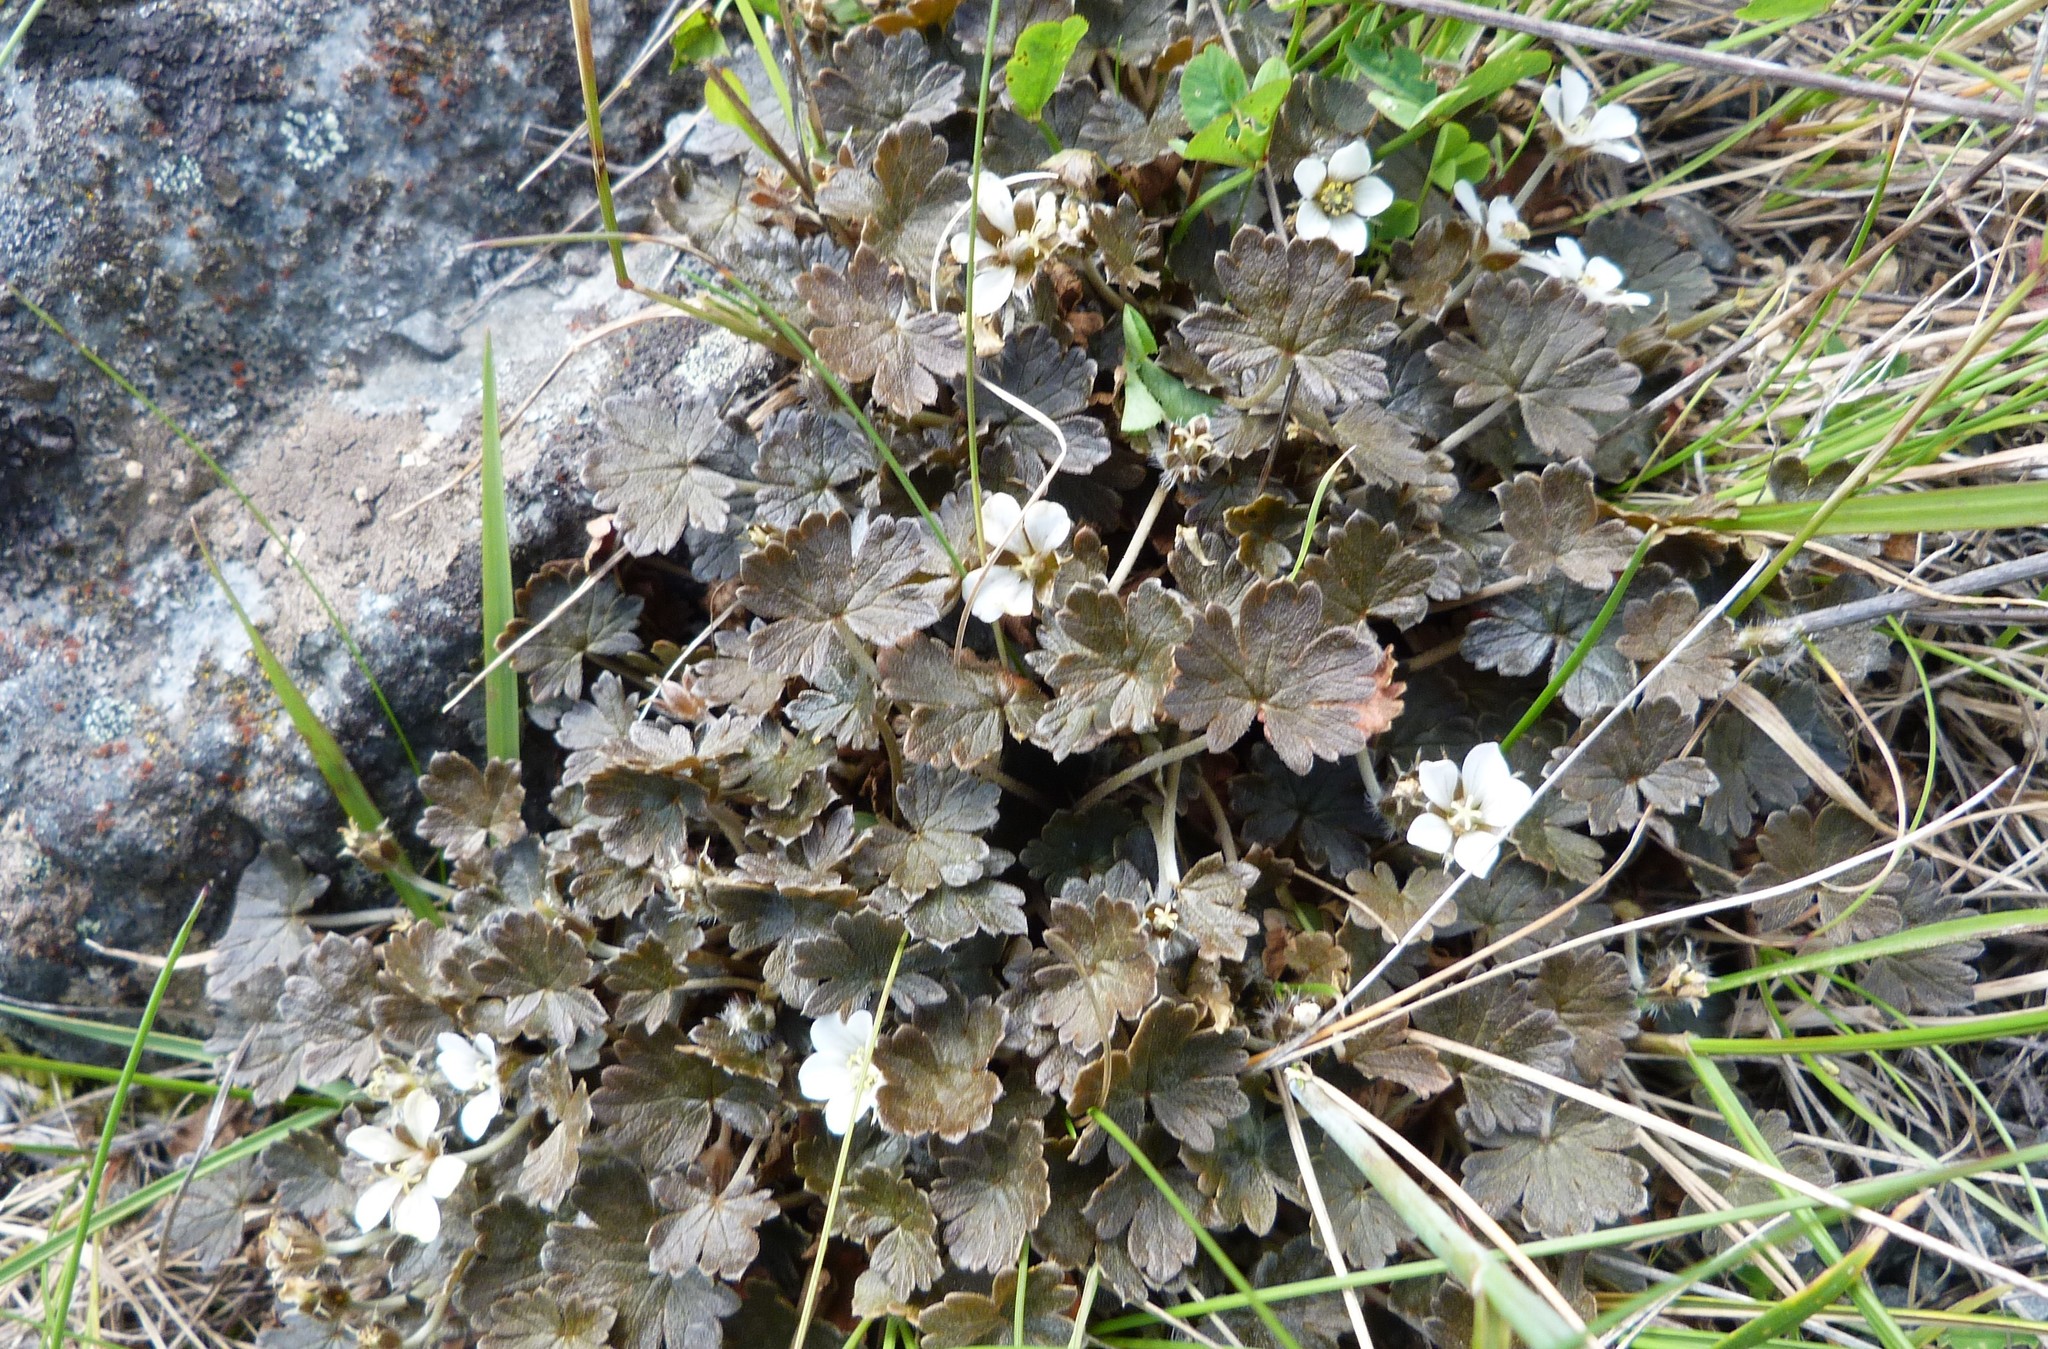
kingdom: Plantae
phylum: Tracheophyta
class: Magnoliopsida
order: Geraniales
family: Geraniaceae
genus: Geranium
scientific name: Geranium brevicaule
